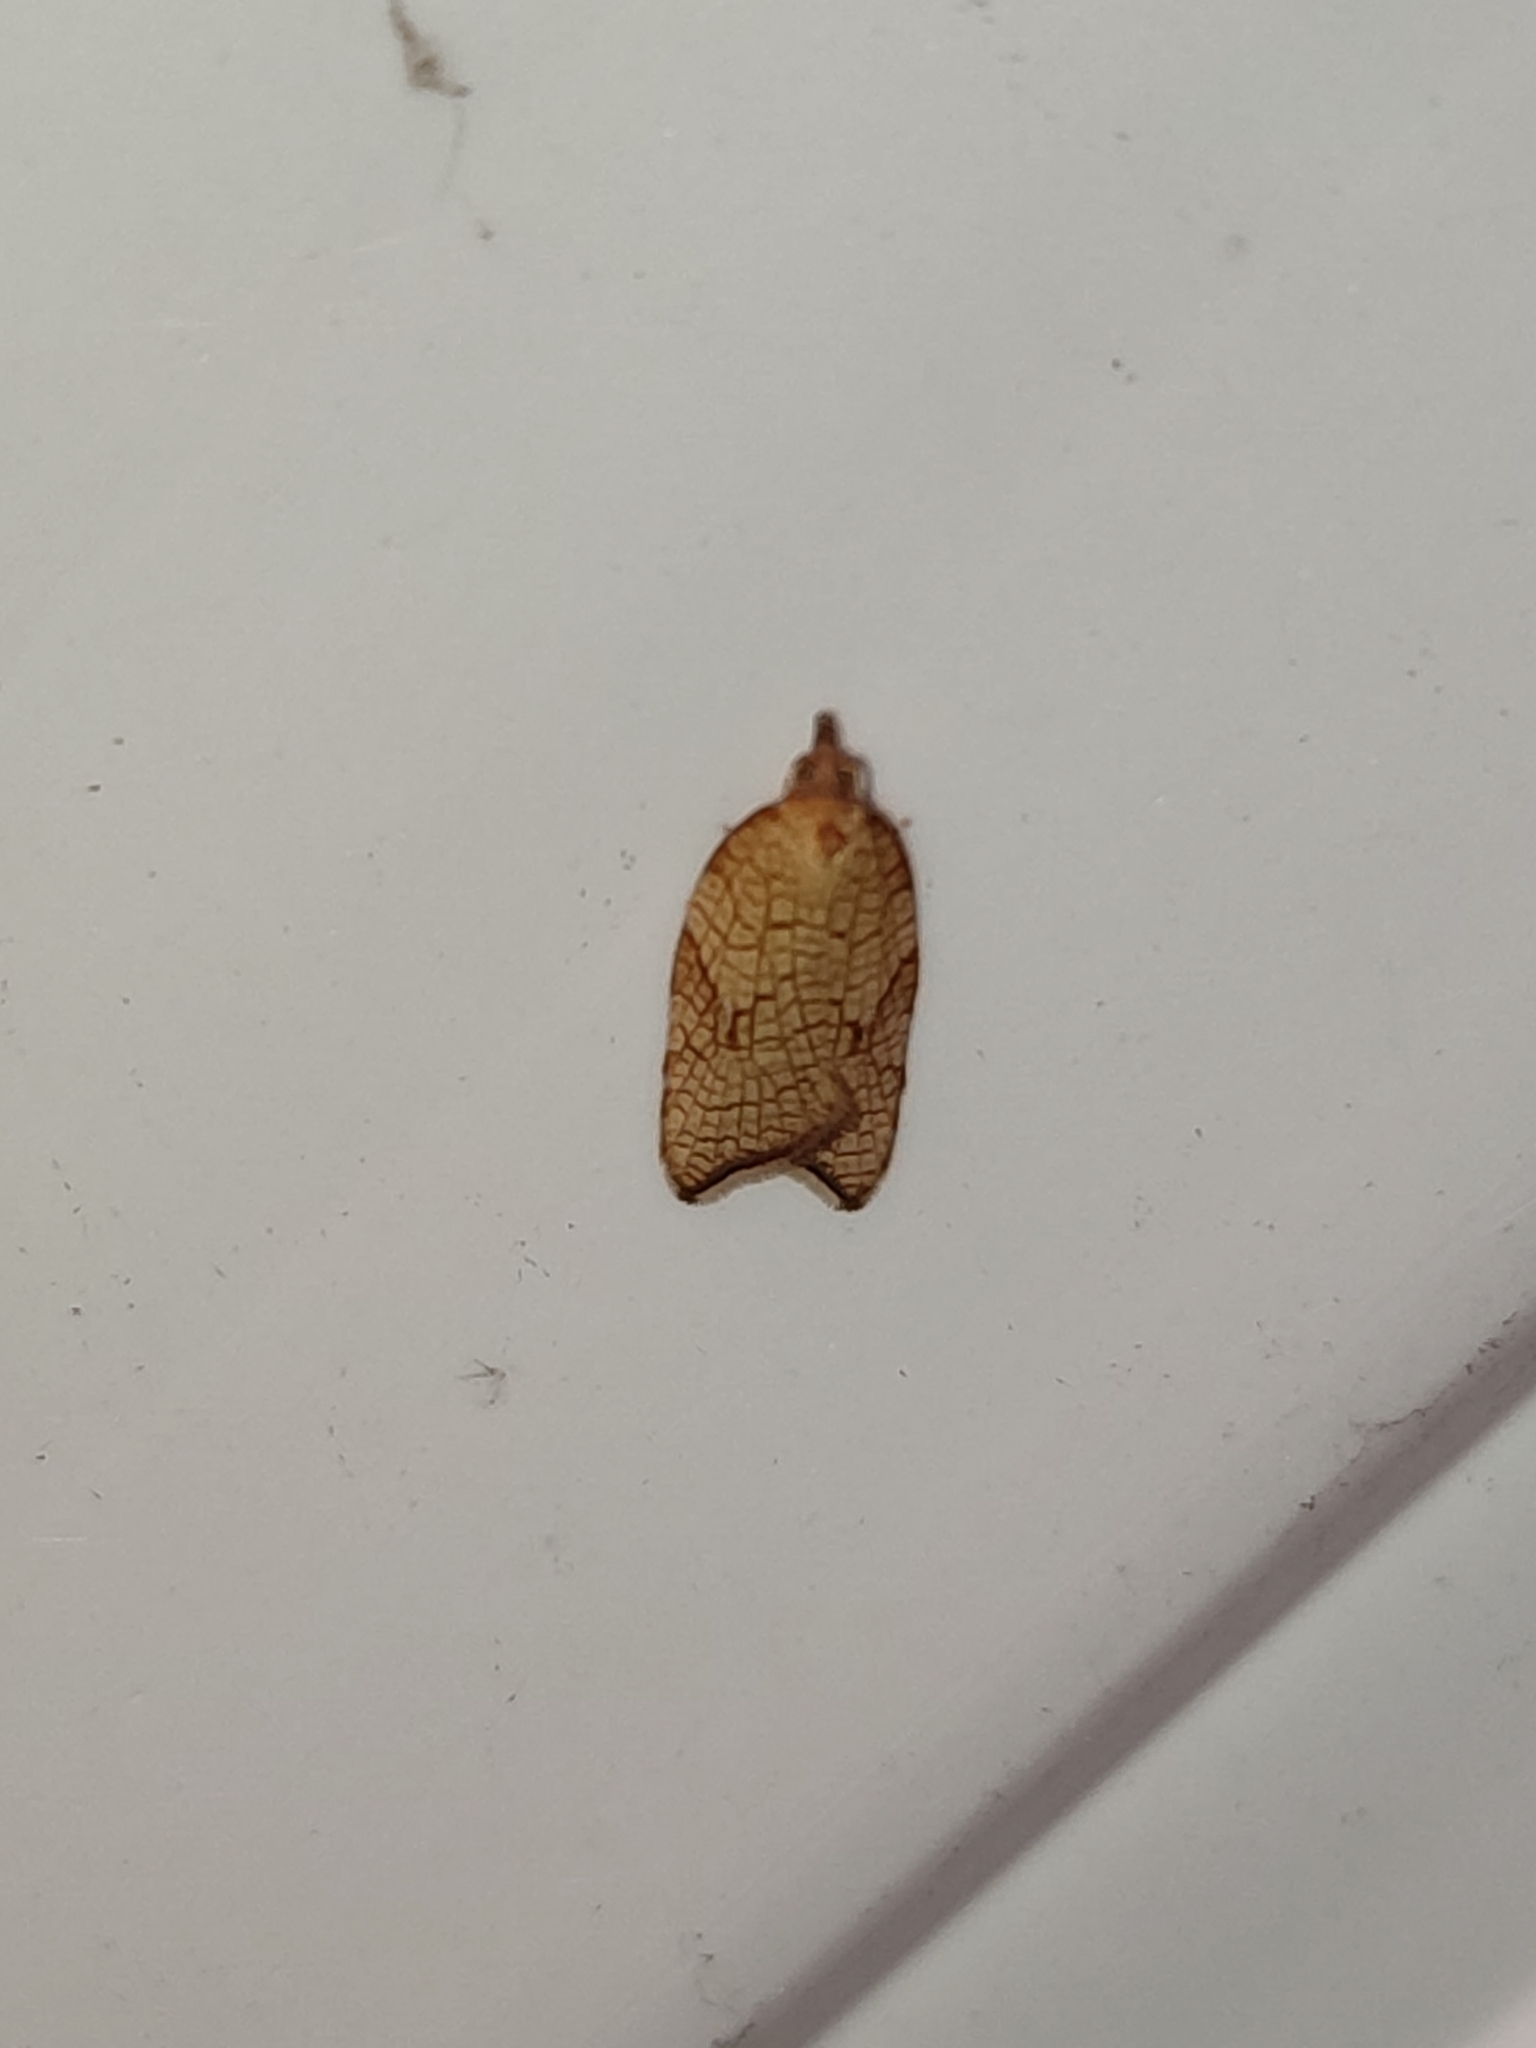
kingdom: Animalia
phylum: Arthropoda
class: Insecta
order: Lepidoptera
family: Tortricidae
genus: Acleris
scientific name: Acleris rhombana
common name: Tortricid moth
